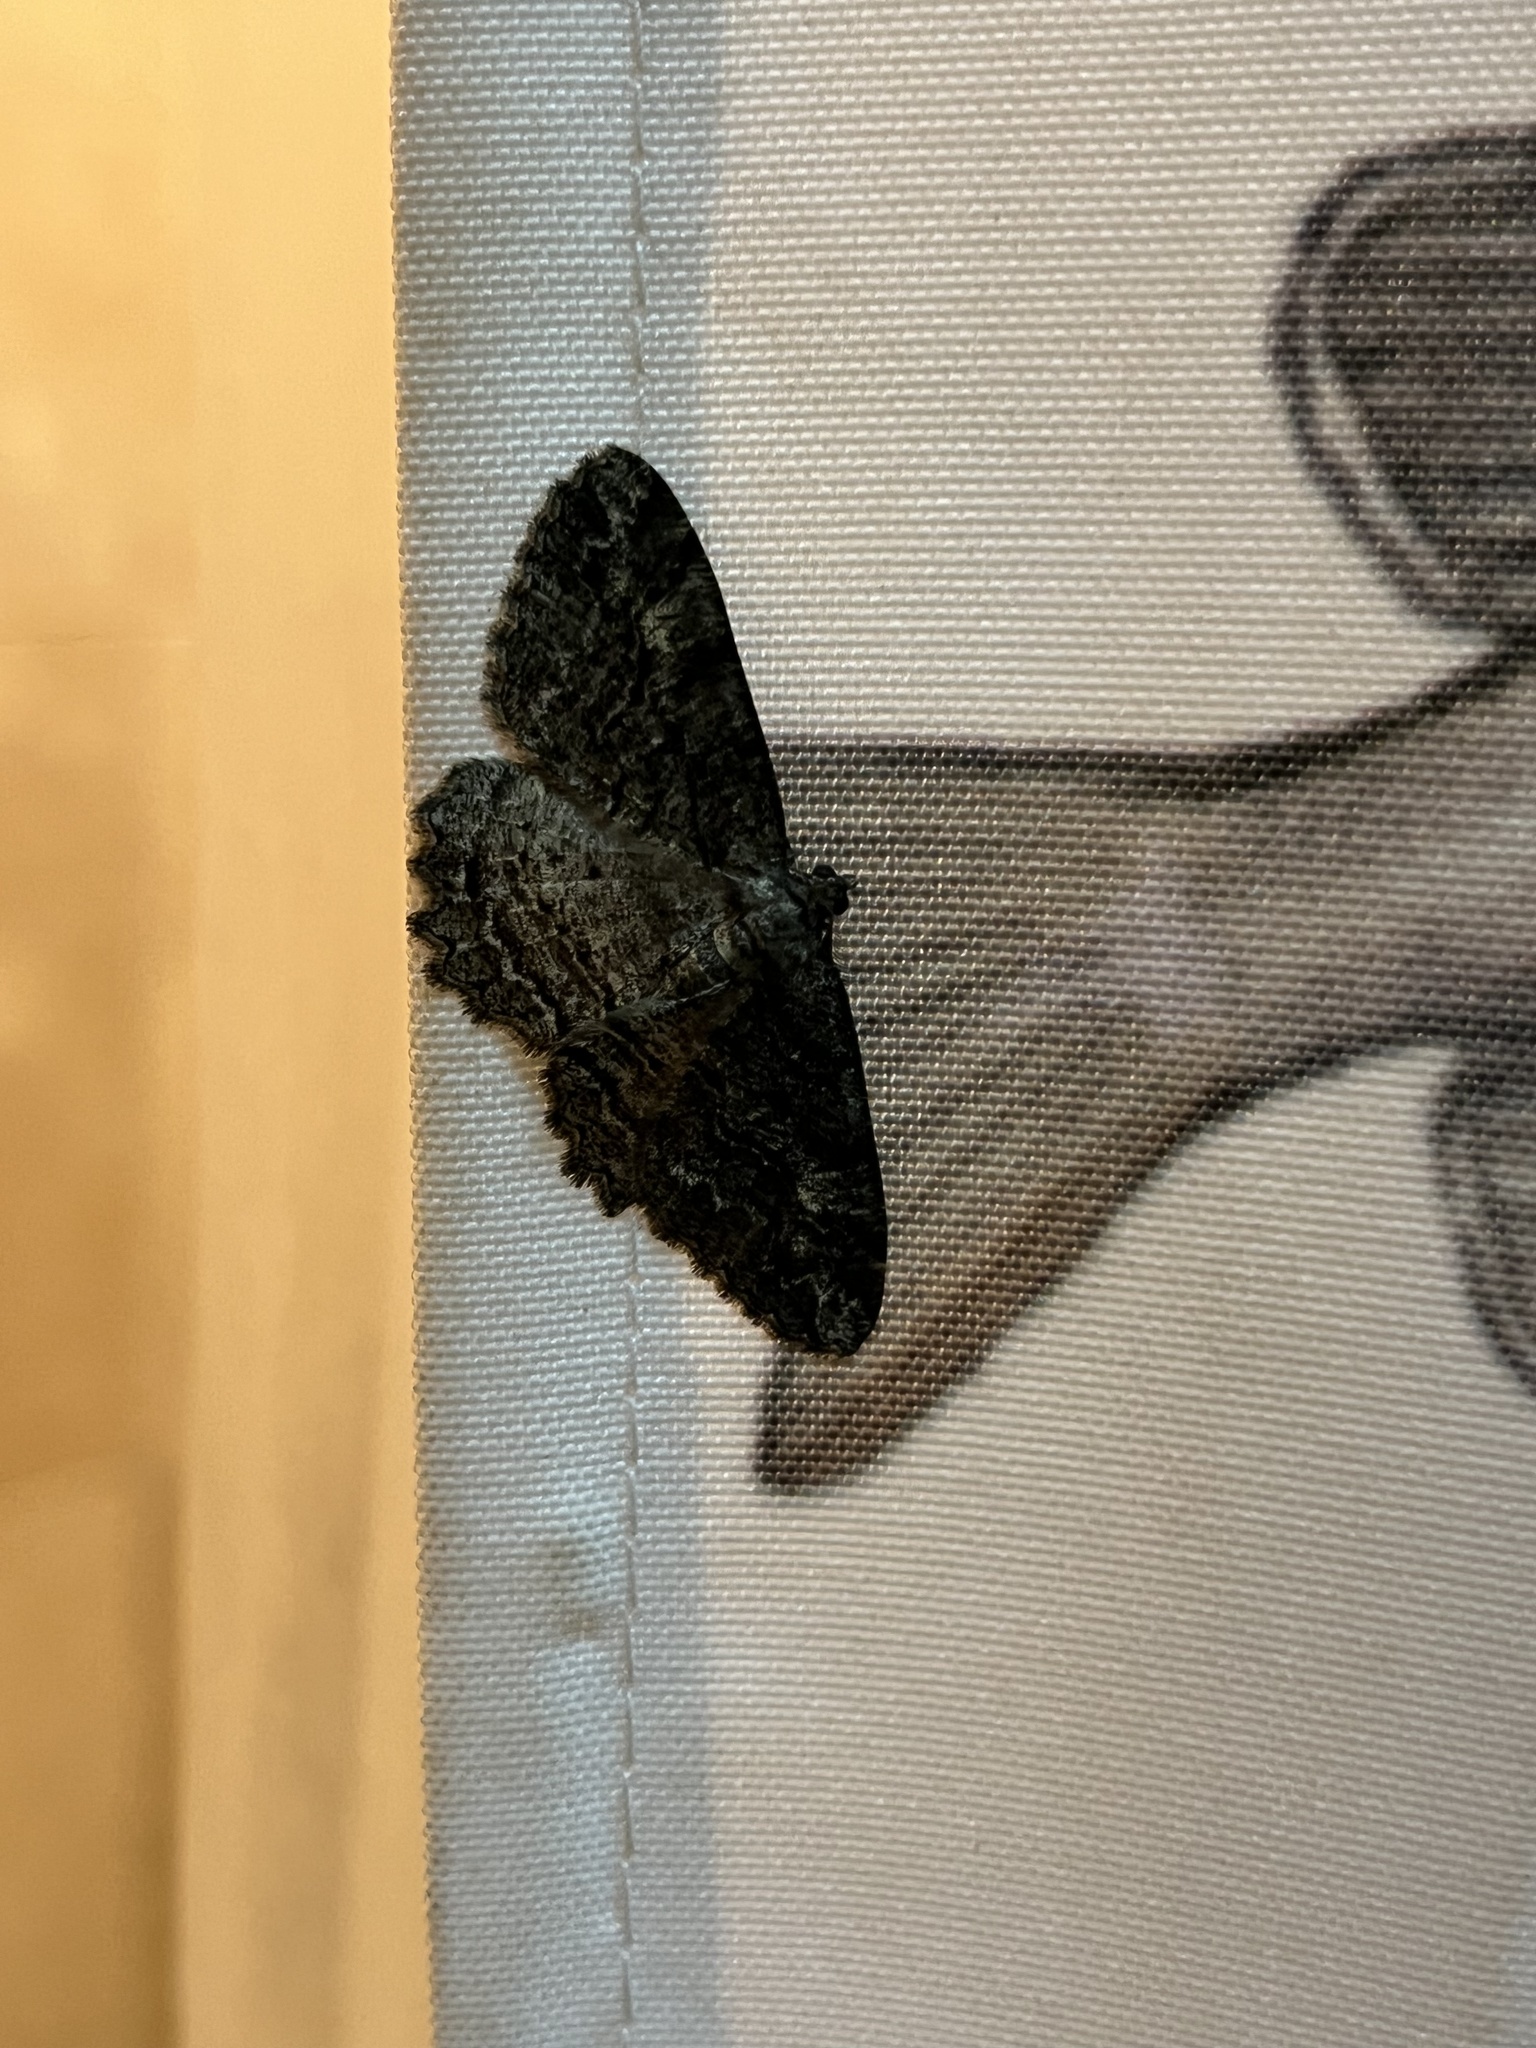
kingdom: Animalia
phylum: Arthropoda
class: Insecta
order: Lepidoptera
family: Geometridae
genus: Neoalcis
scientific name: Neoalcis californiaria
